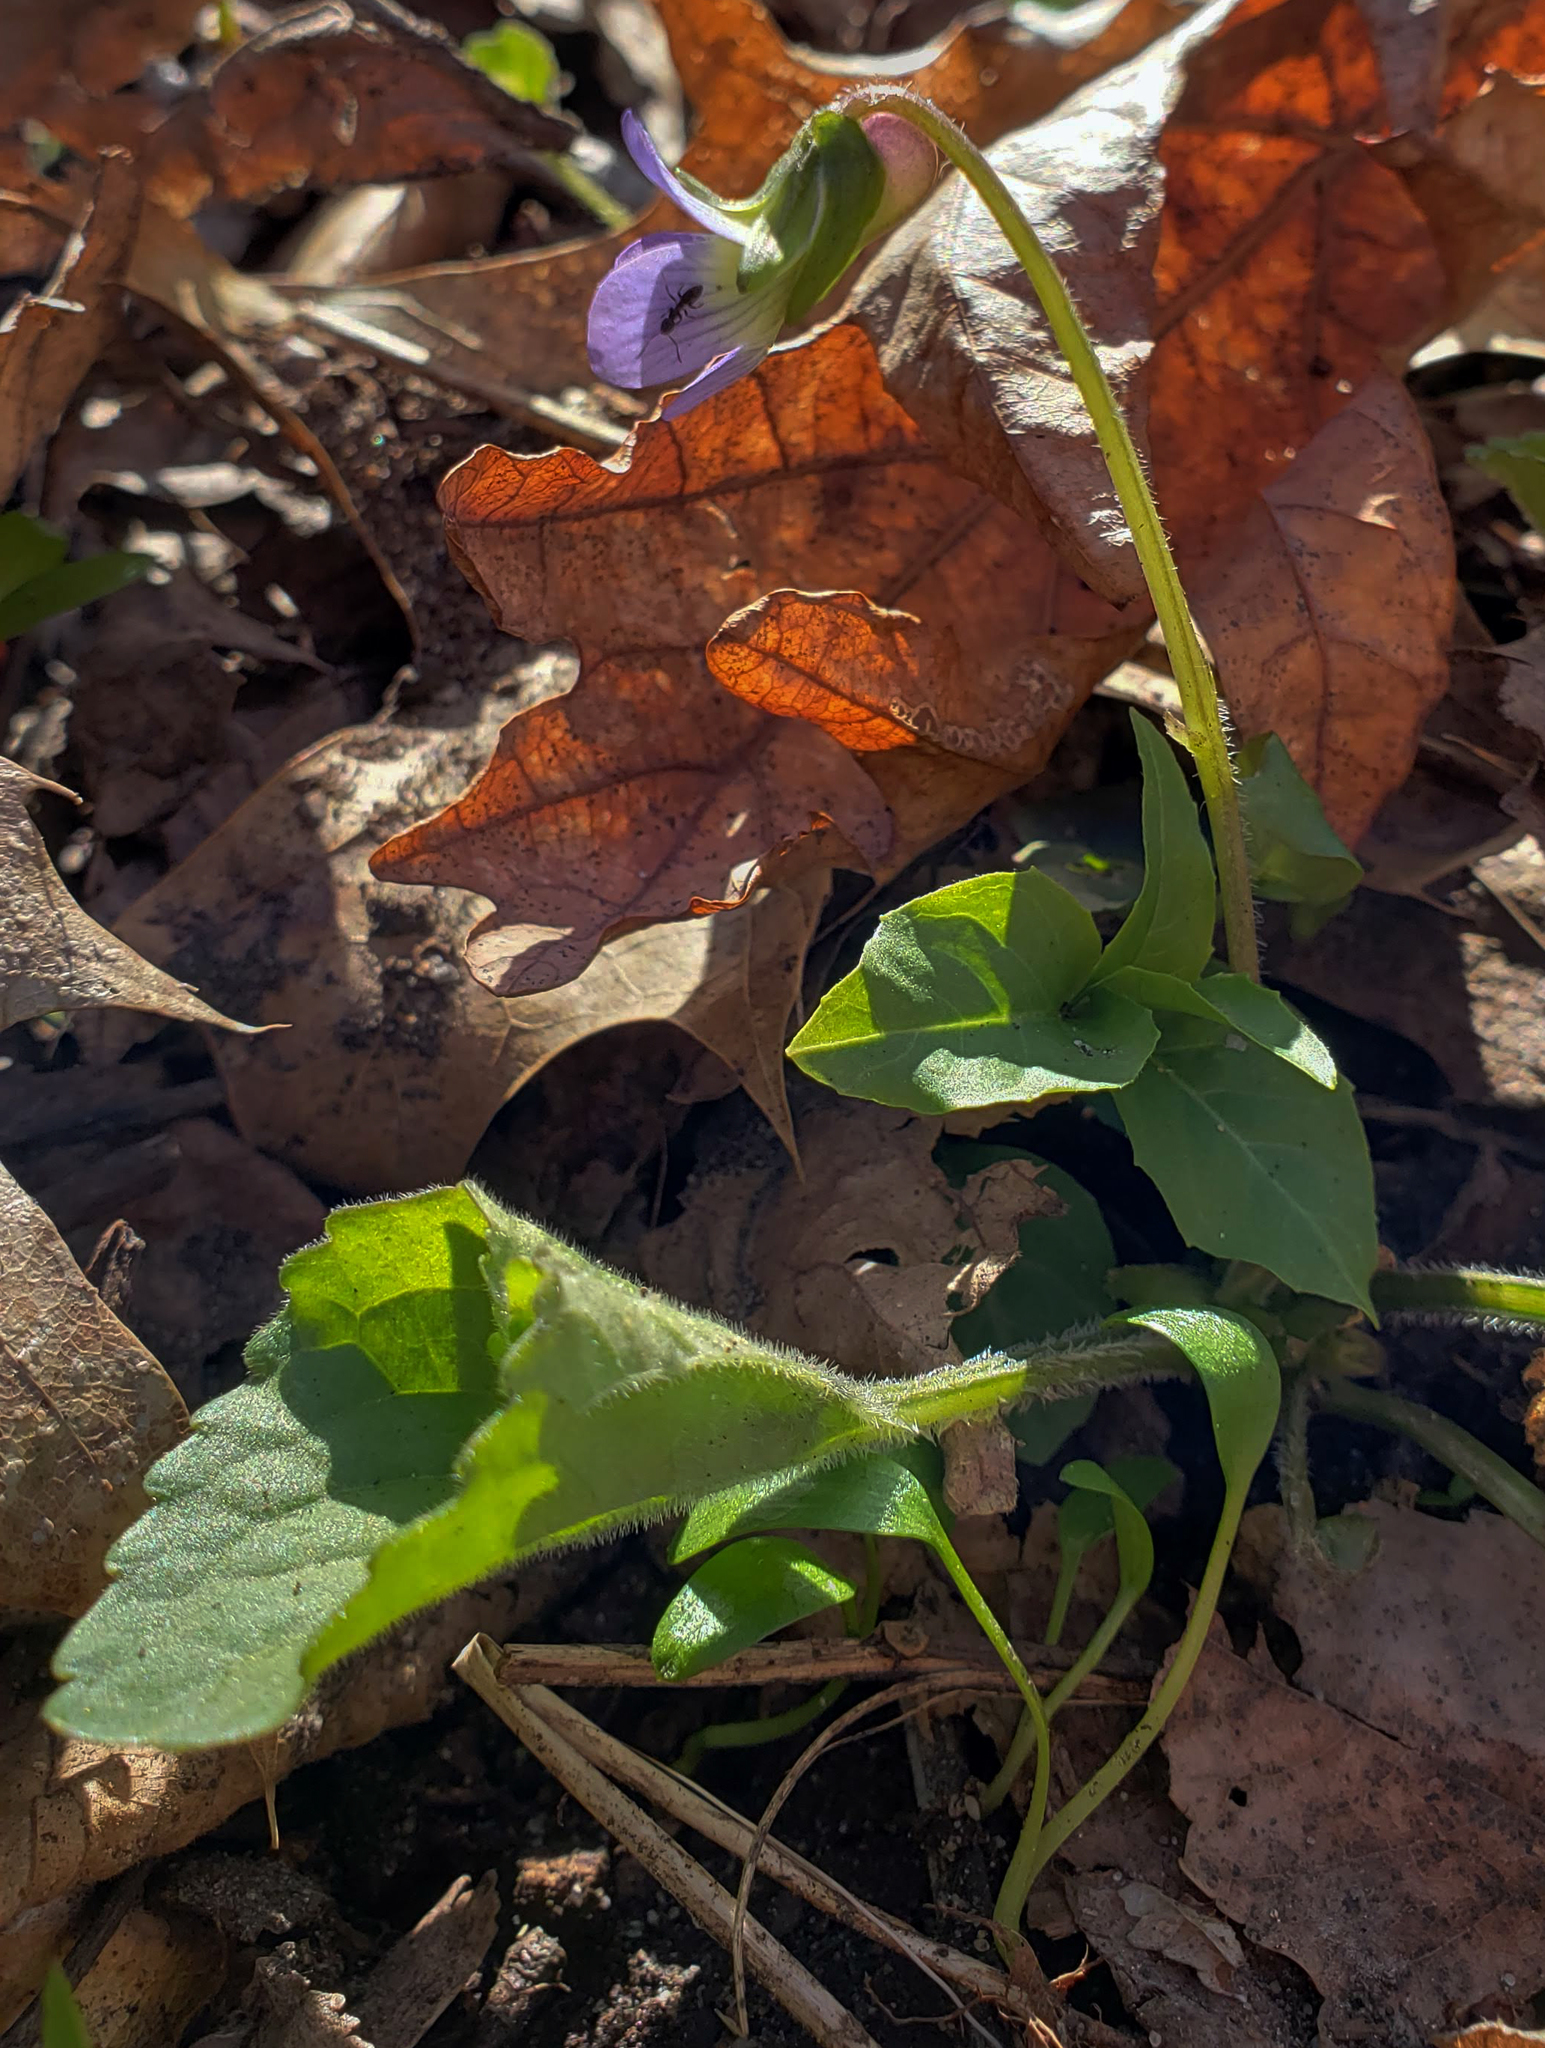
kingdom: Plantae
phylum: Tracheophyta
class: Magnoliopsida
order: Malpighiales
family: Violaceae
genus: Viola
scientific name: Viola sororia
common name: Dooryard violet
